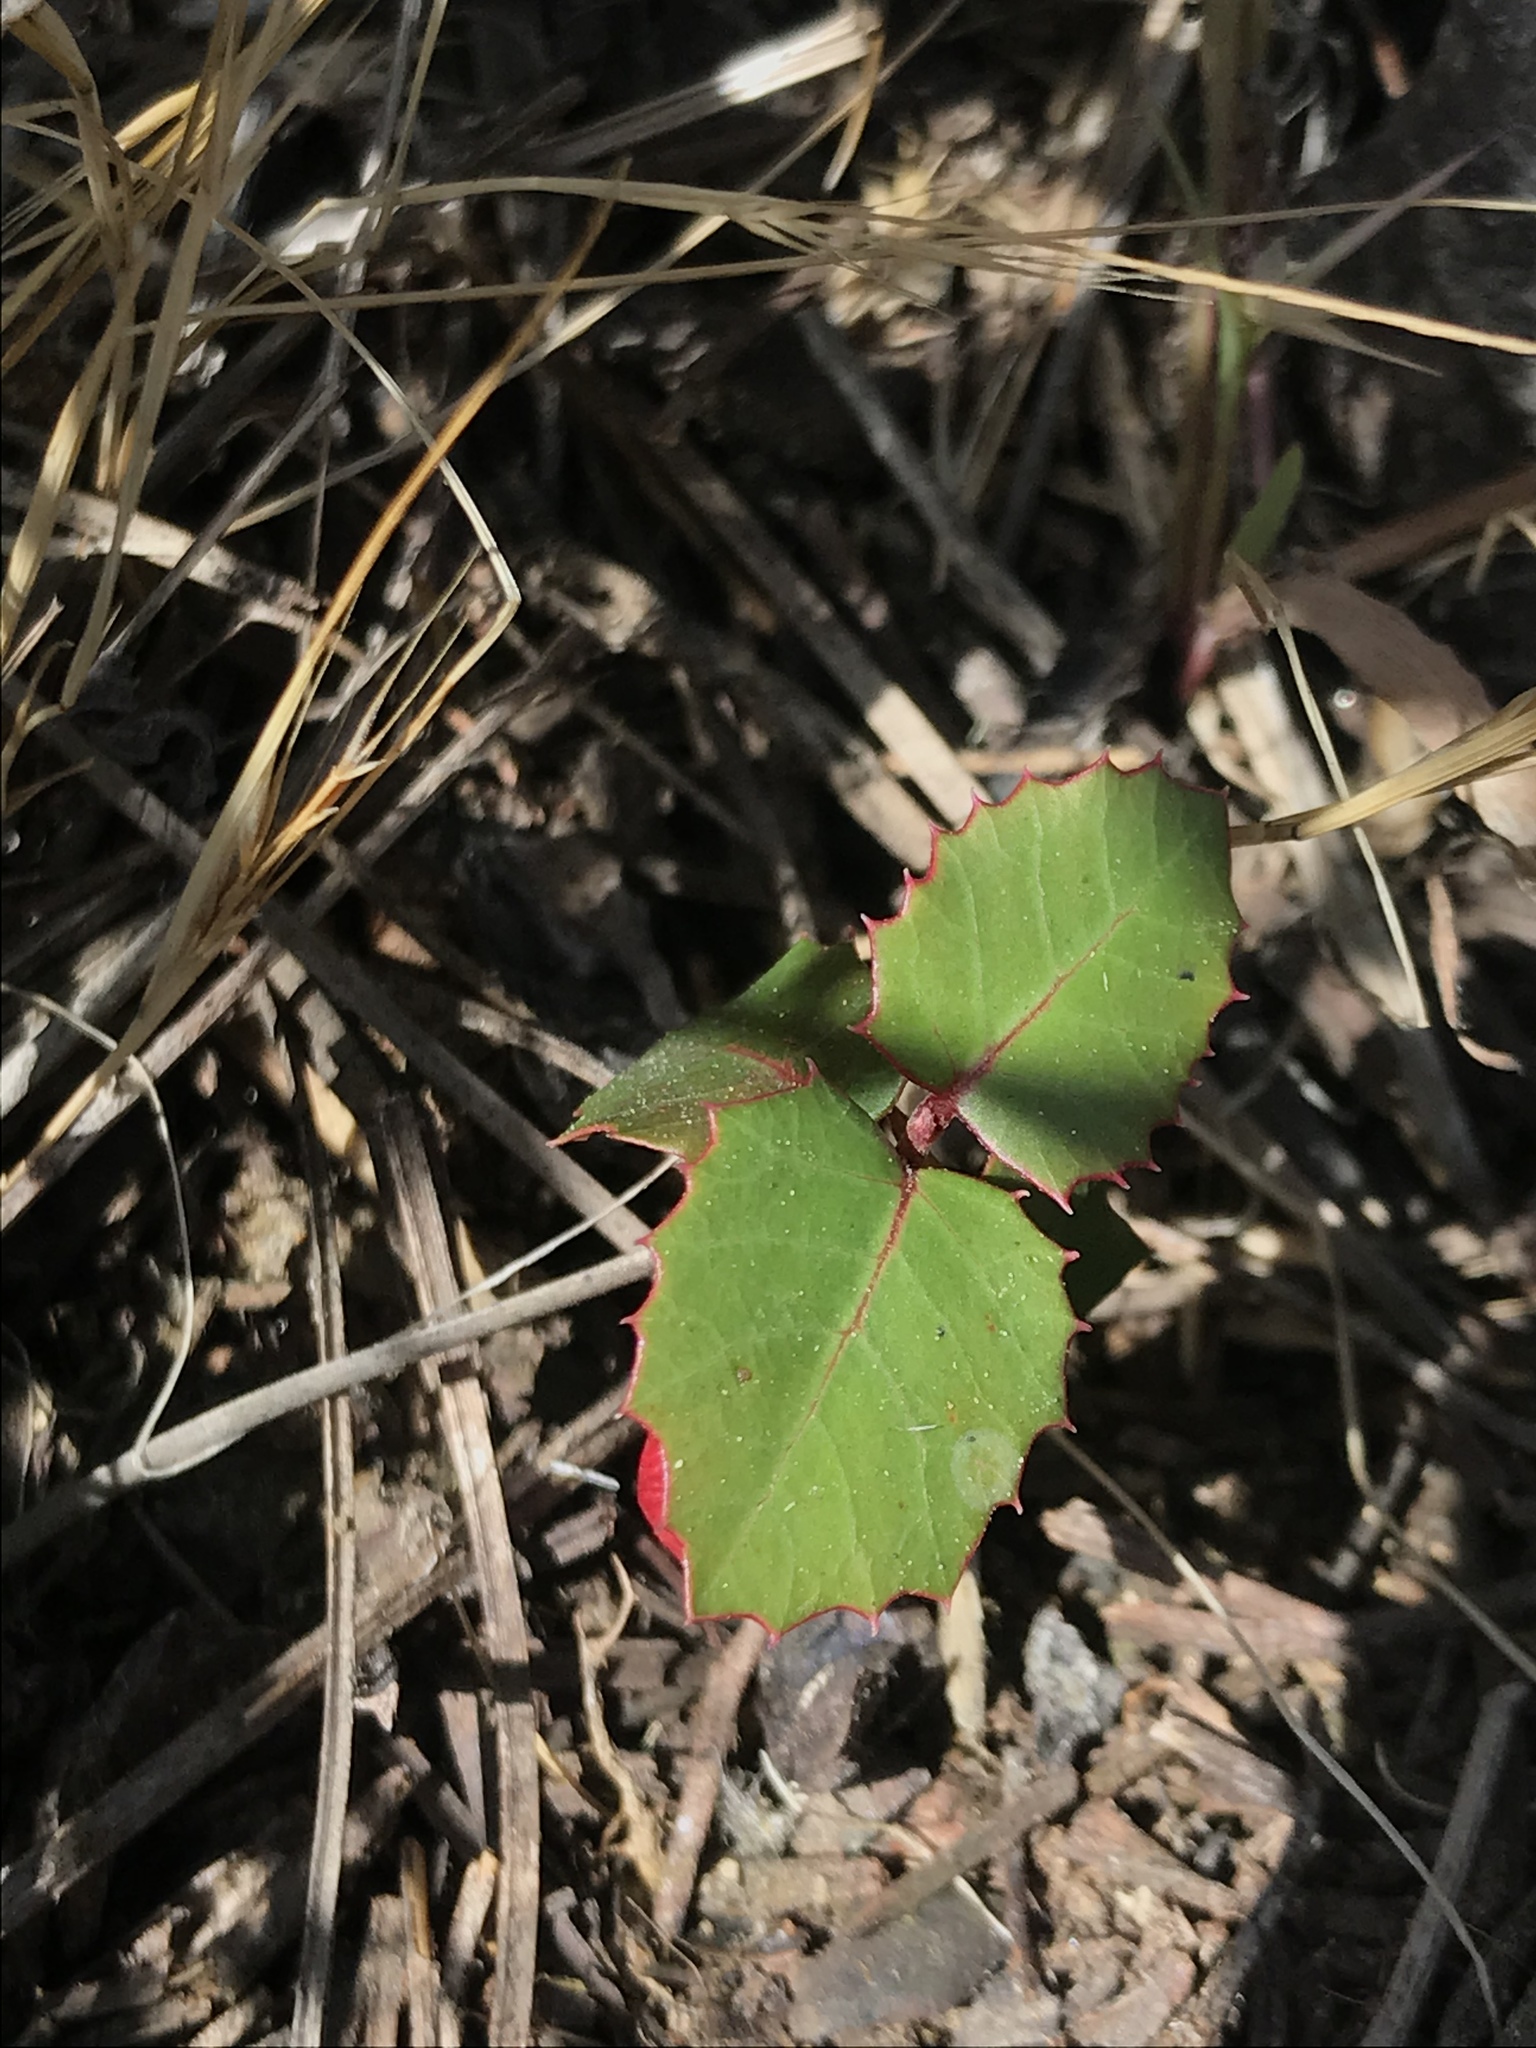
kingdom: Plantae
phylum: Tracheophyta
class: Magnoliopsida
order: Sapindales
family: Anacardiaceae
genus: Rhus
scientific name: Rhus integrifolia
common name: Lemonade sumac
